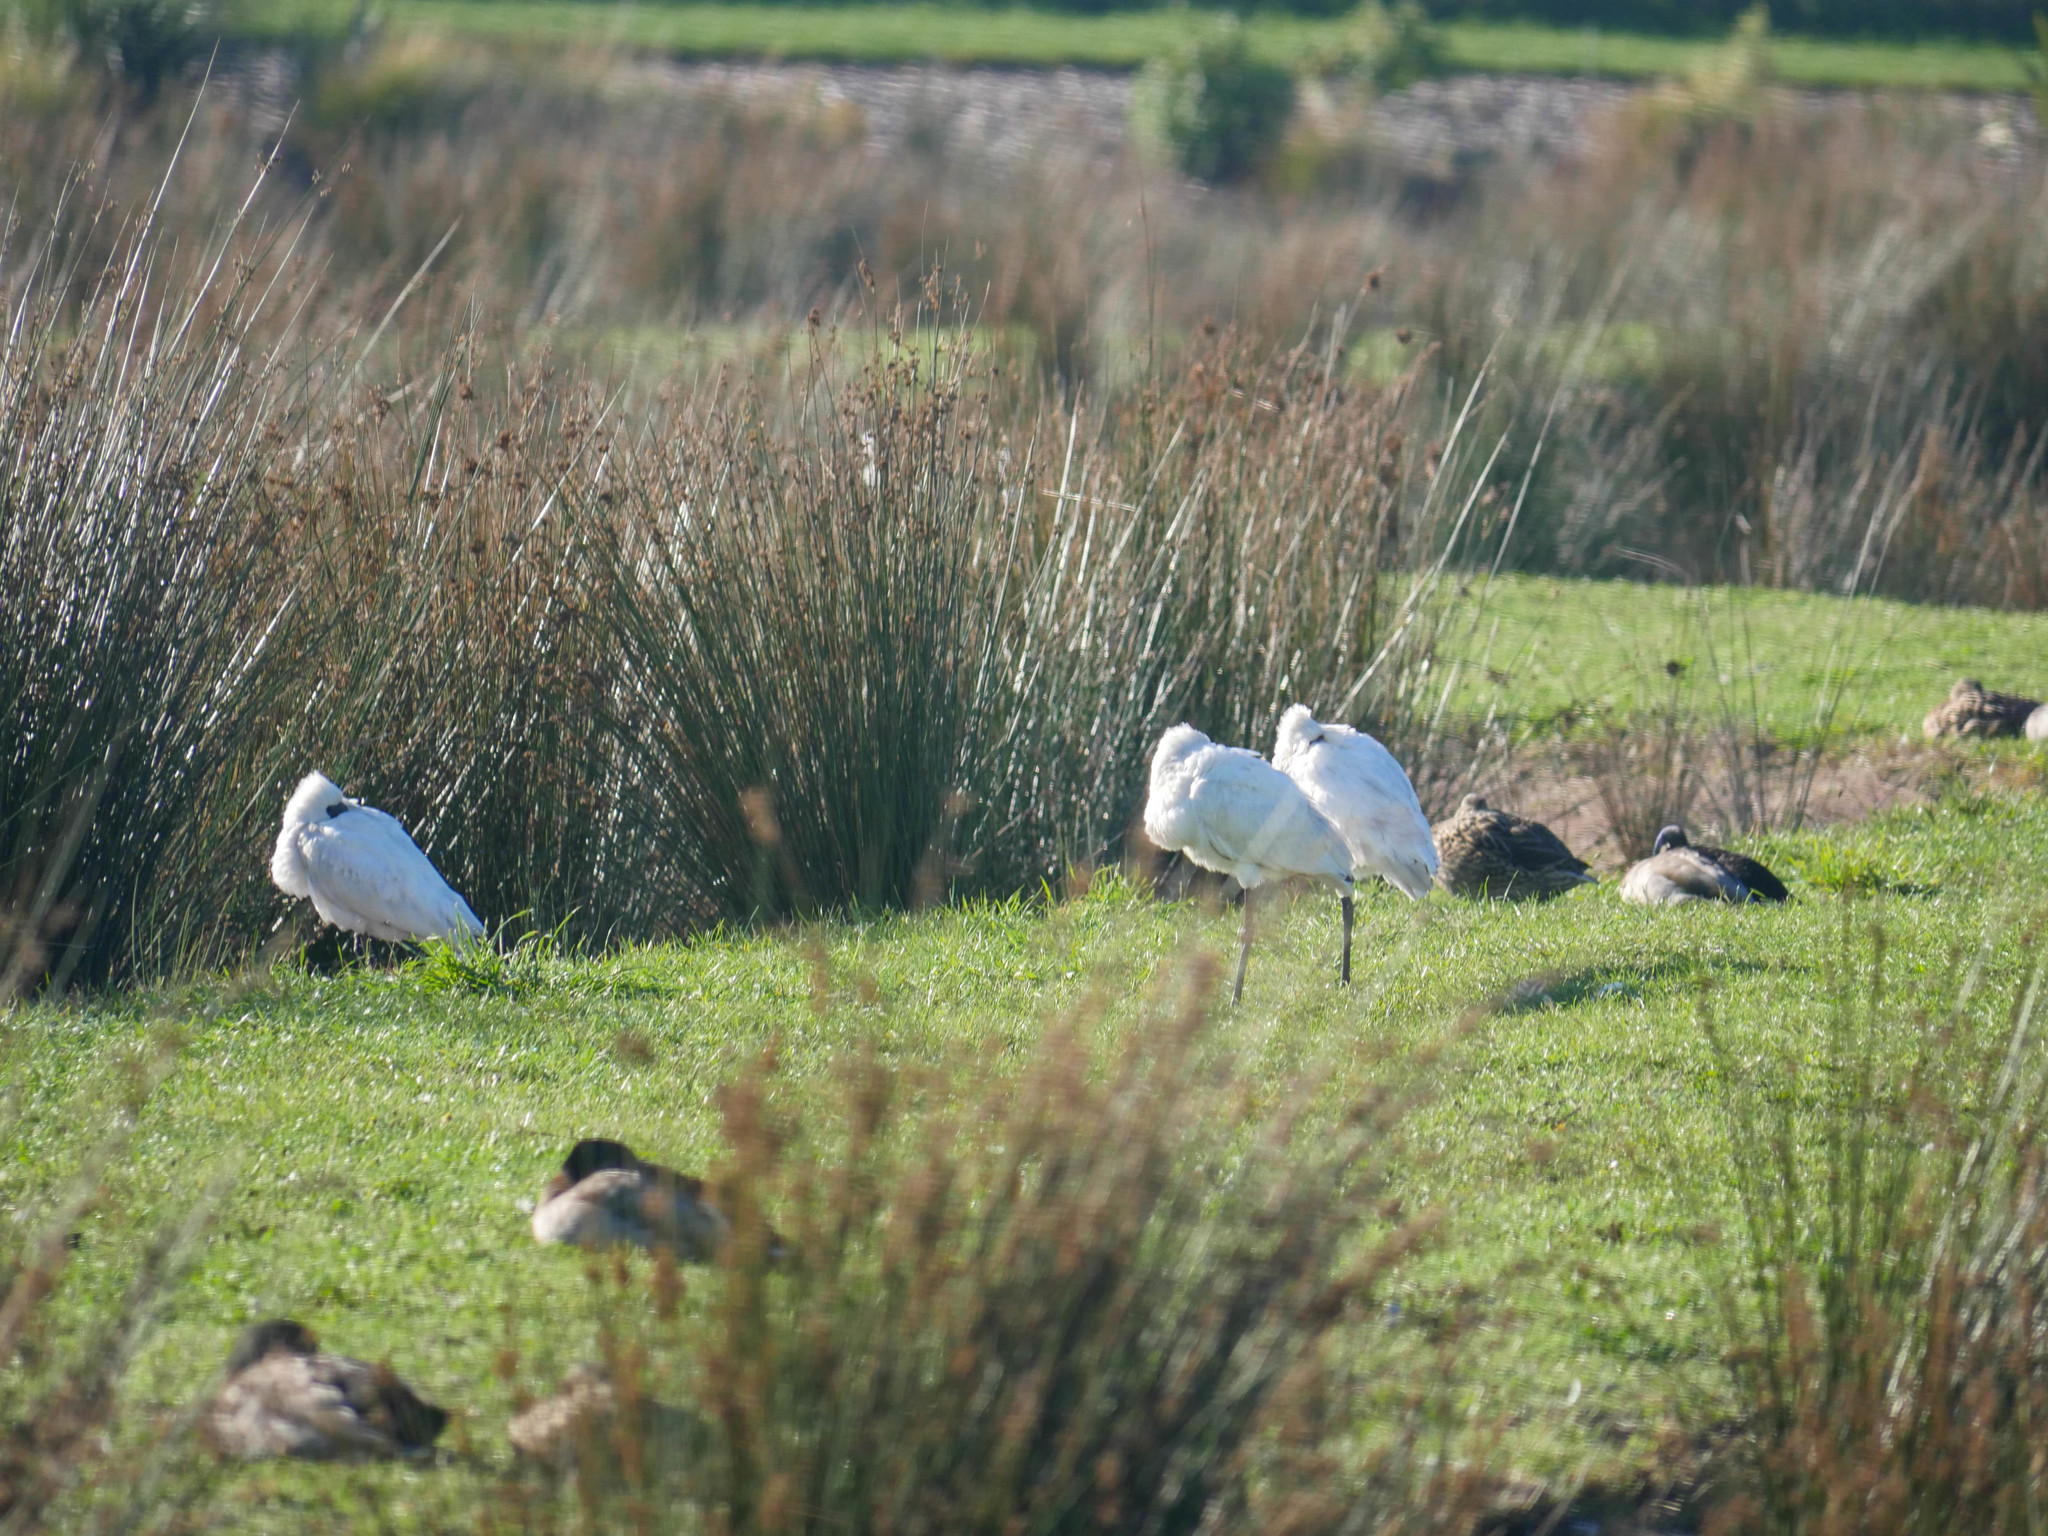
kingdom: Animalia
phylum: Chordata
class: Aves
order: Pelecaniformes
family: Threskiornithidae
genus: Platalea
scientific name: Platalea regia
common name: Royal spoonbill
